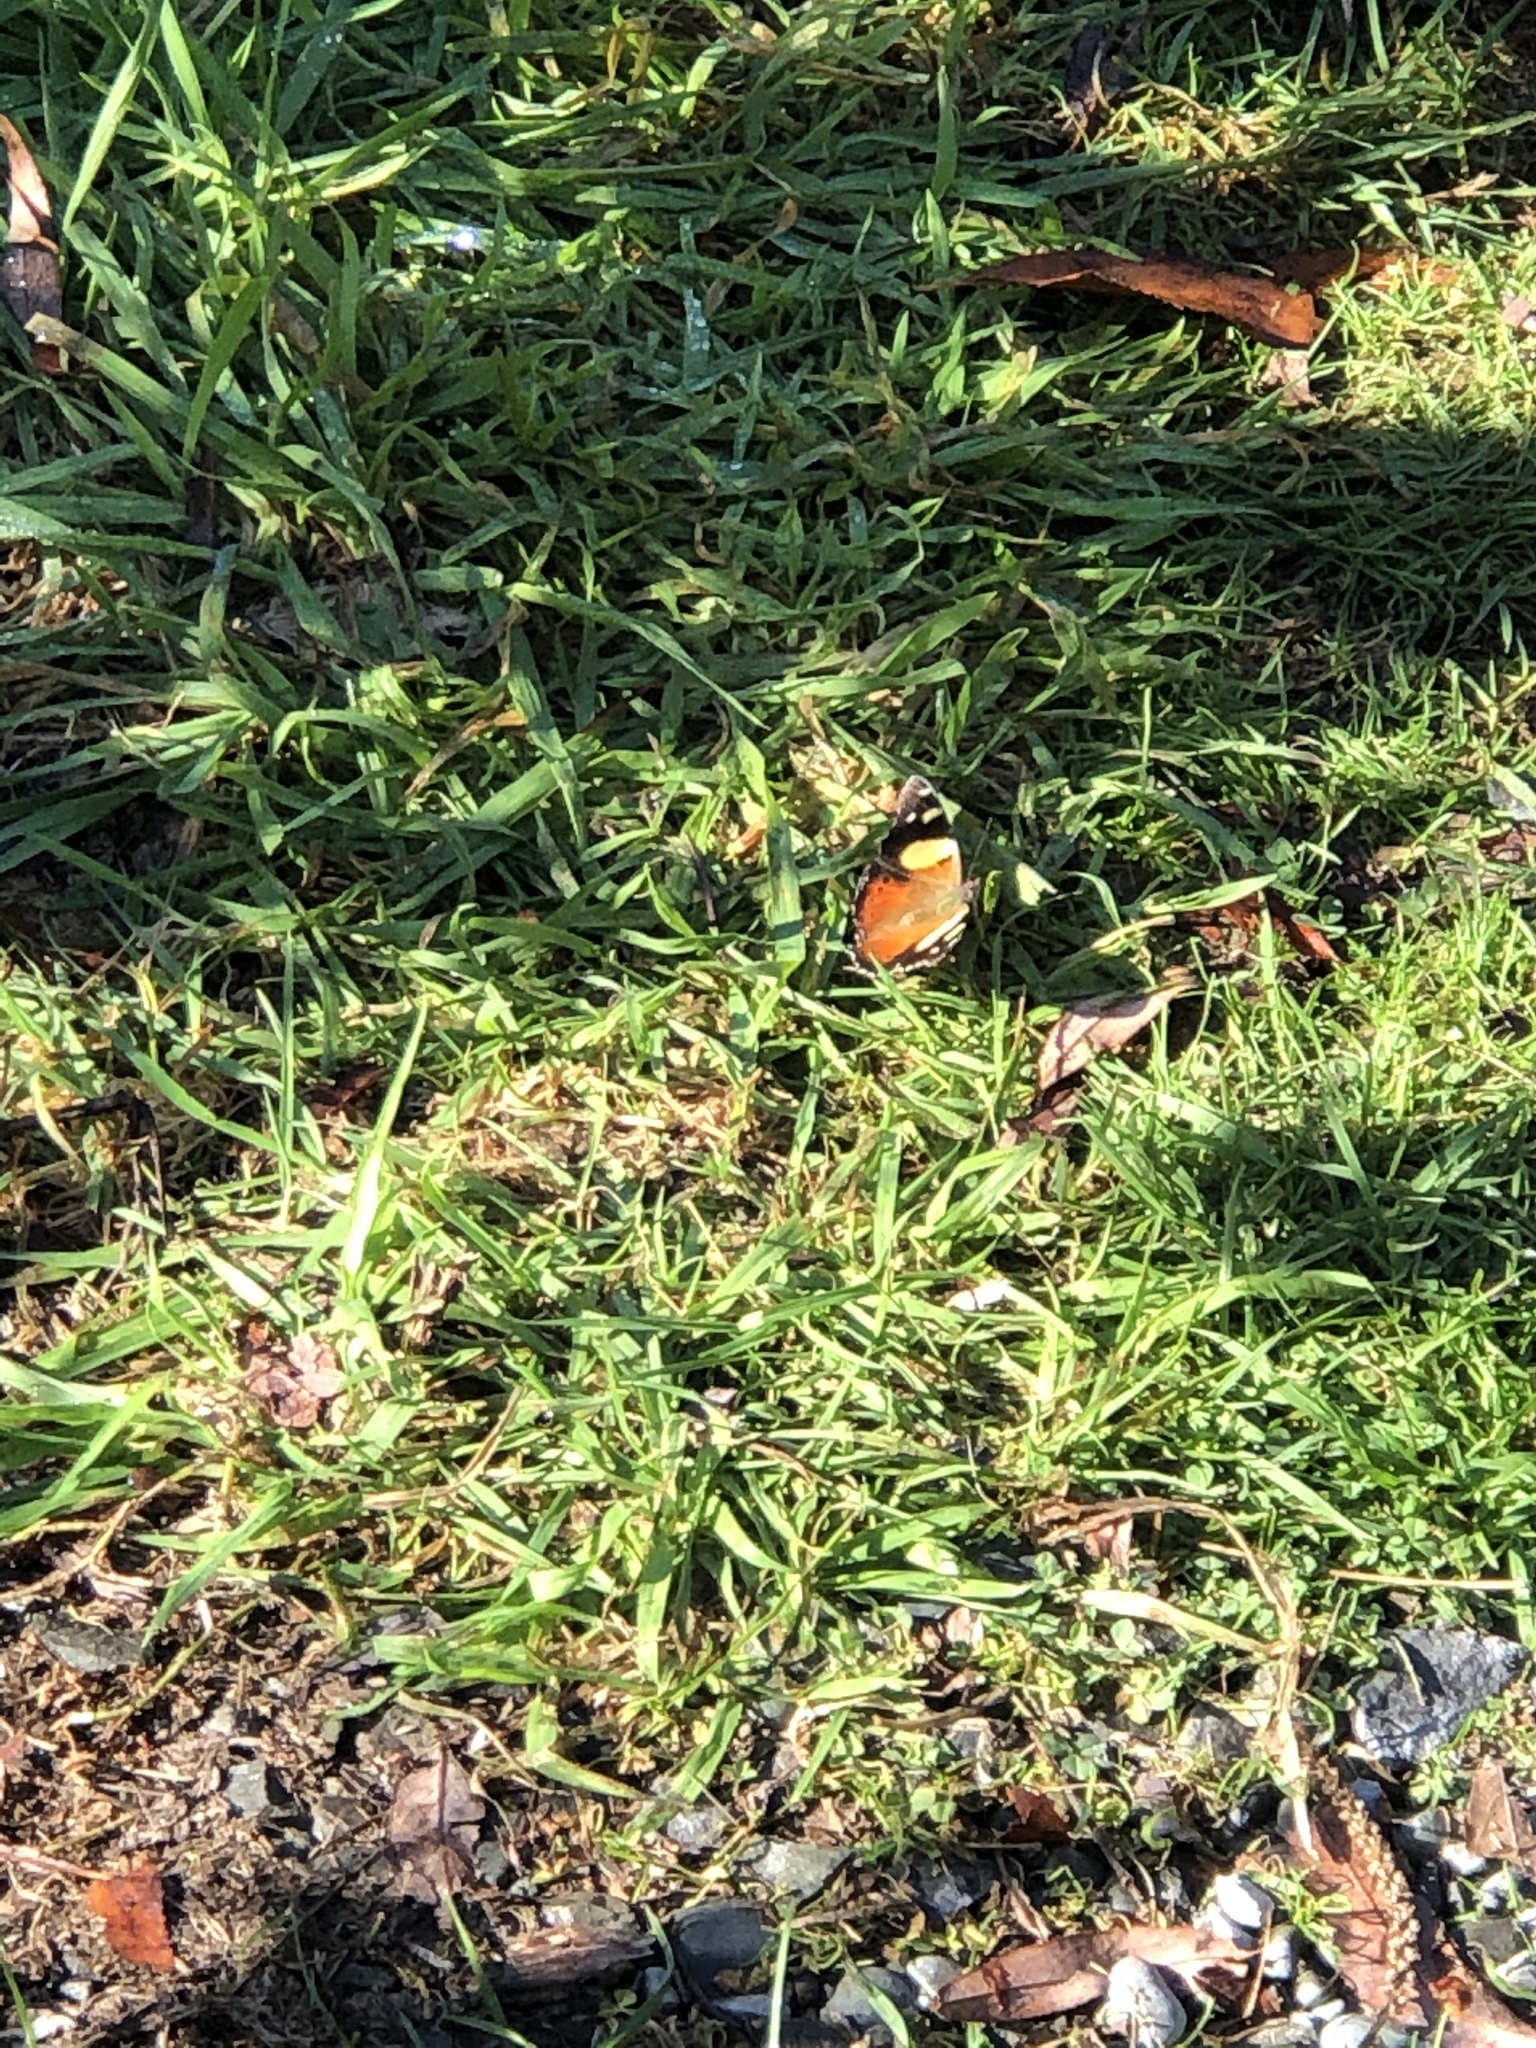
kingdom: Animalia
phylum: Arthropoda
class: Insecta
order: Lepidoptera
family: Nymphalidae
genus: Vanessa
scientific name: Vanessa itea
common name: Yellow admiral
